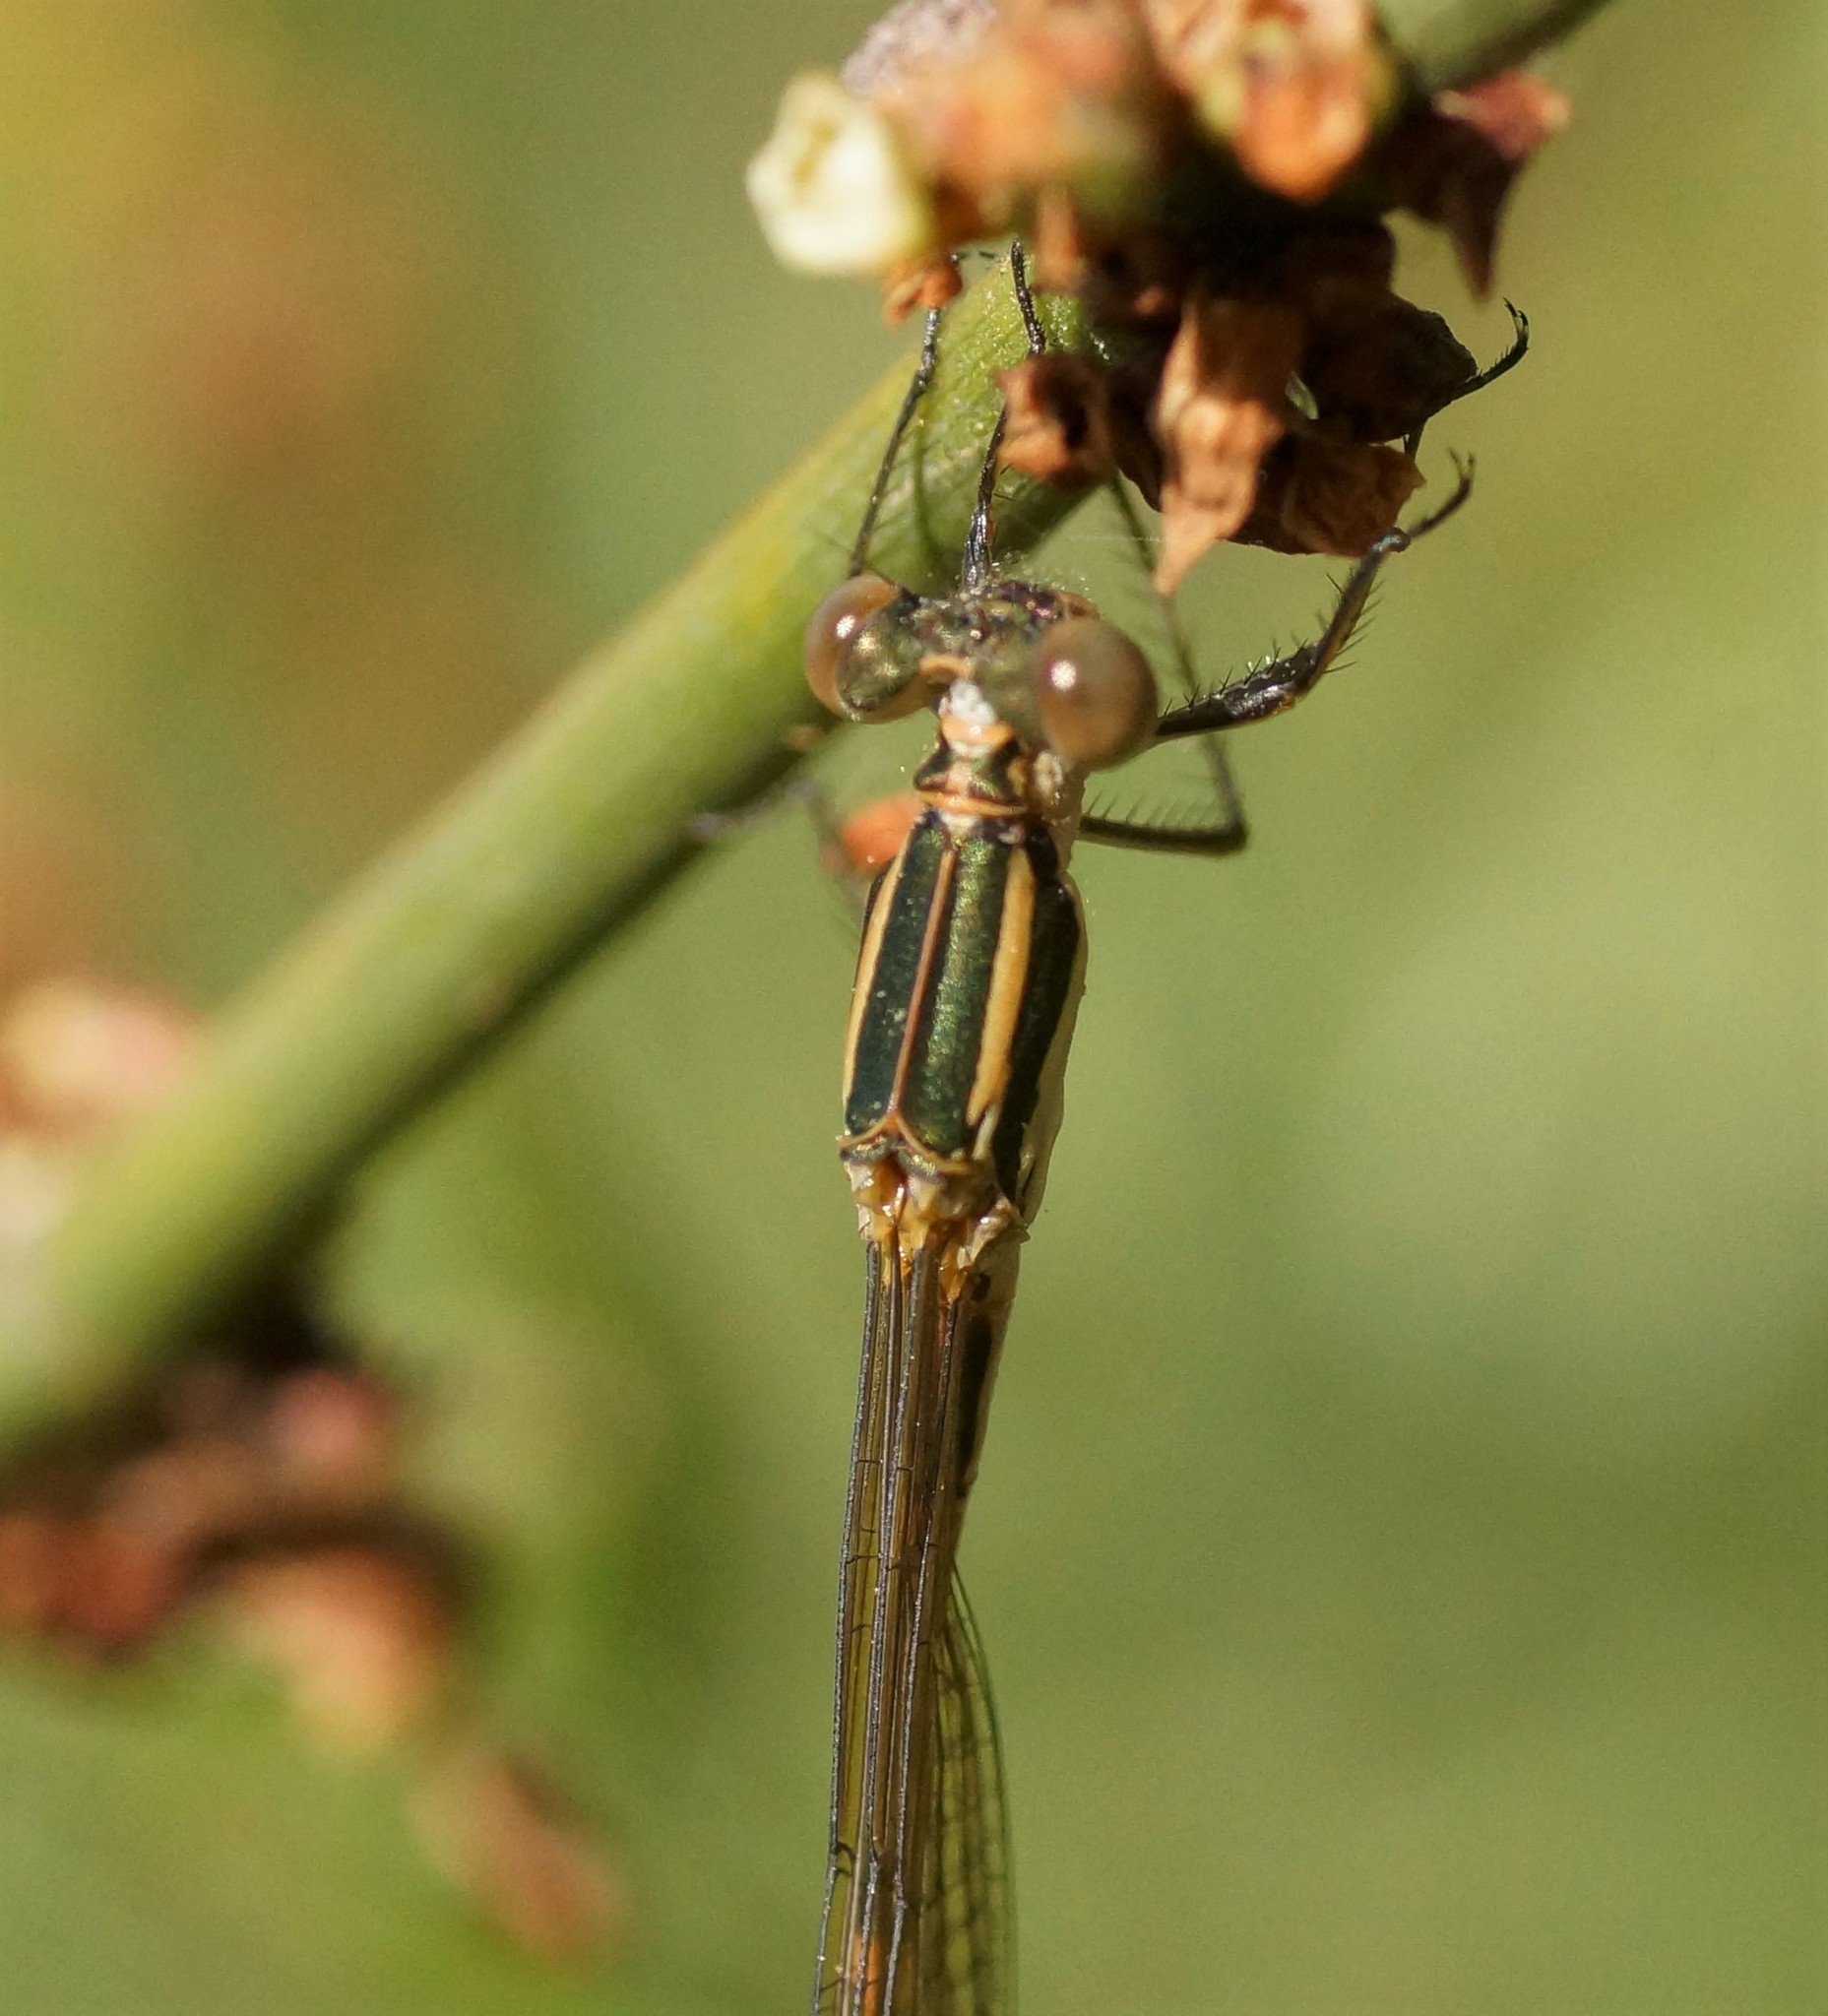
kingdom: Animalia
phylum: Arthropoda
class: Insecta
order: Odonata
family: Lestidae
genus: Austrolestes
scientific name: Austrolestes analis
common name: Slender ringtail
